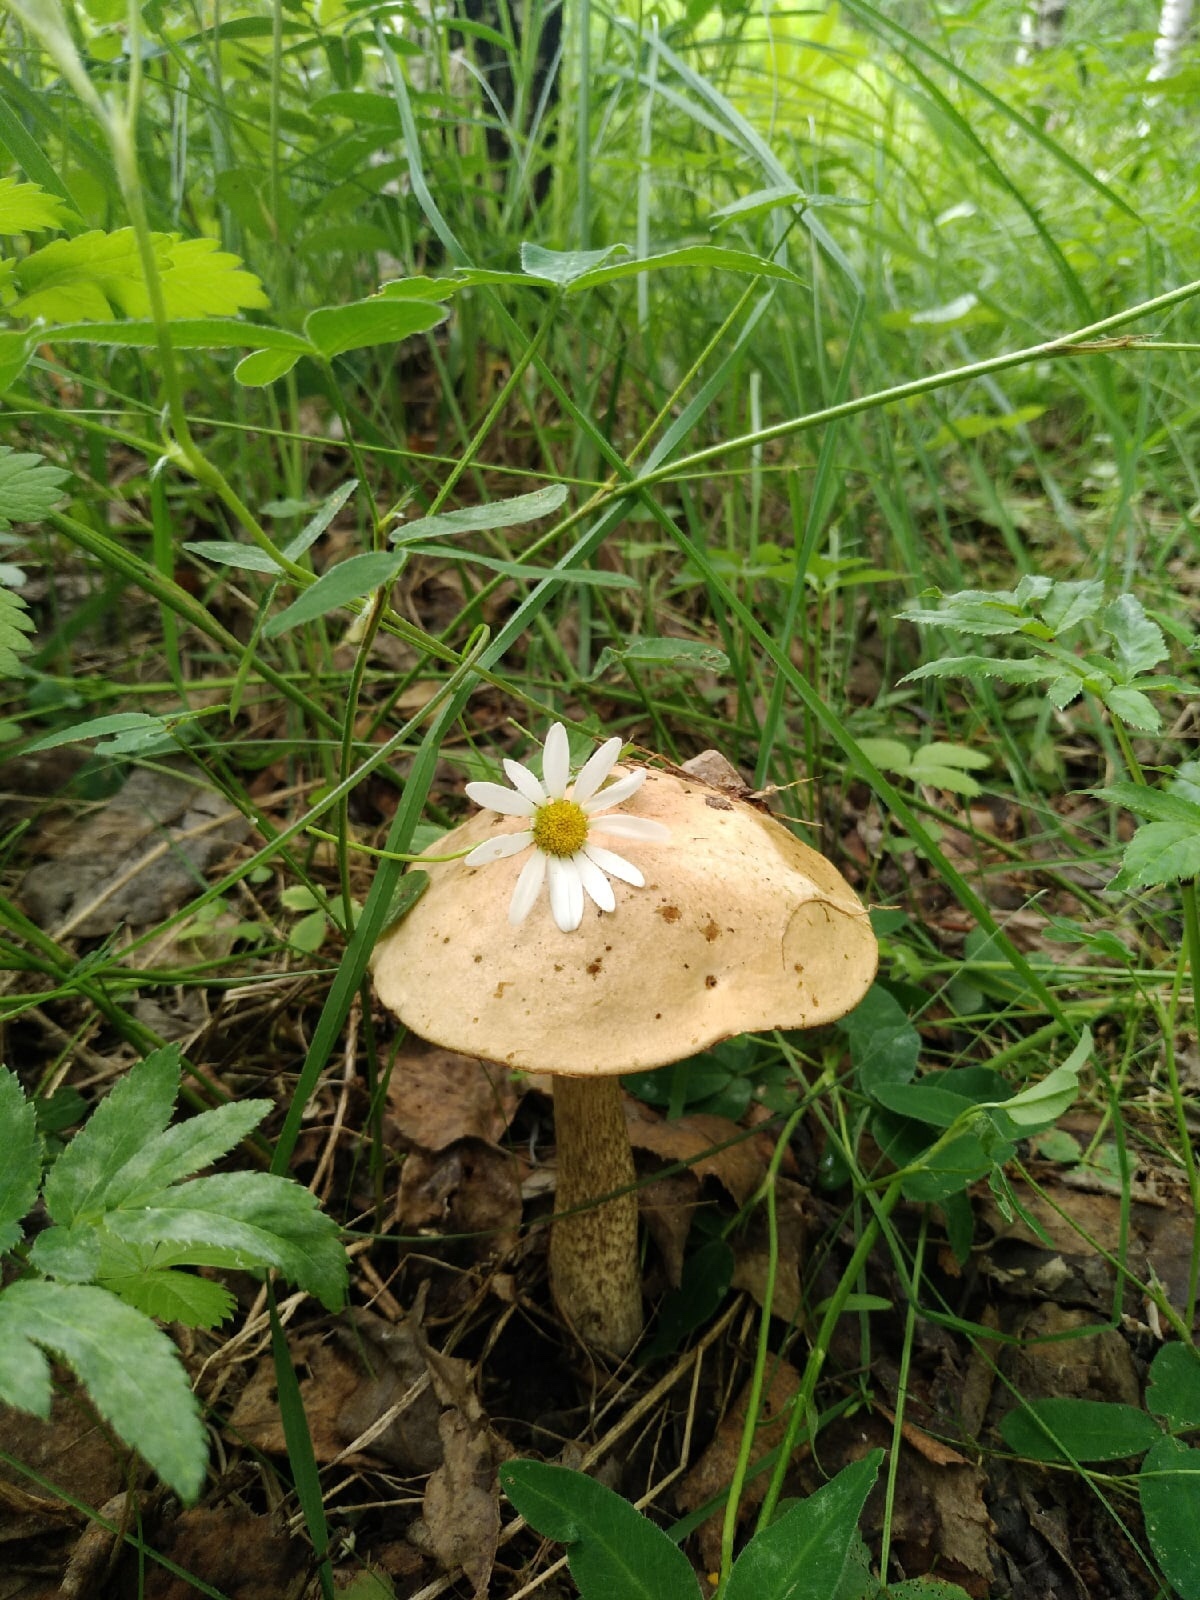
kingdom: Fungi
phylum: Basidiomycota
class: Agaricomycetes
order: Boletales
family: Boletaceae
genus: Leccinum
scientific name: Leccinum scabrum
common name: Blushing bolete
